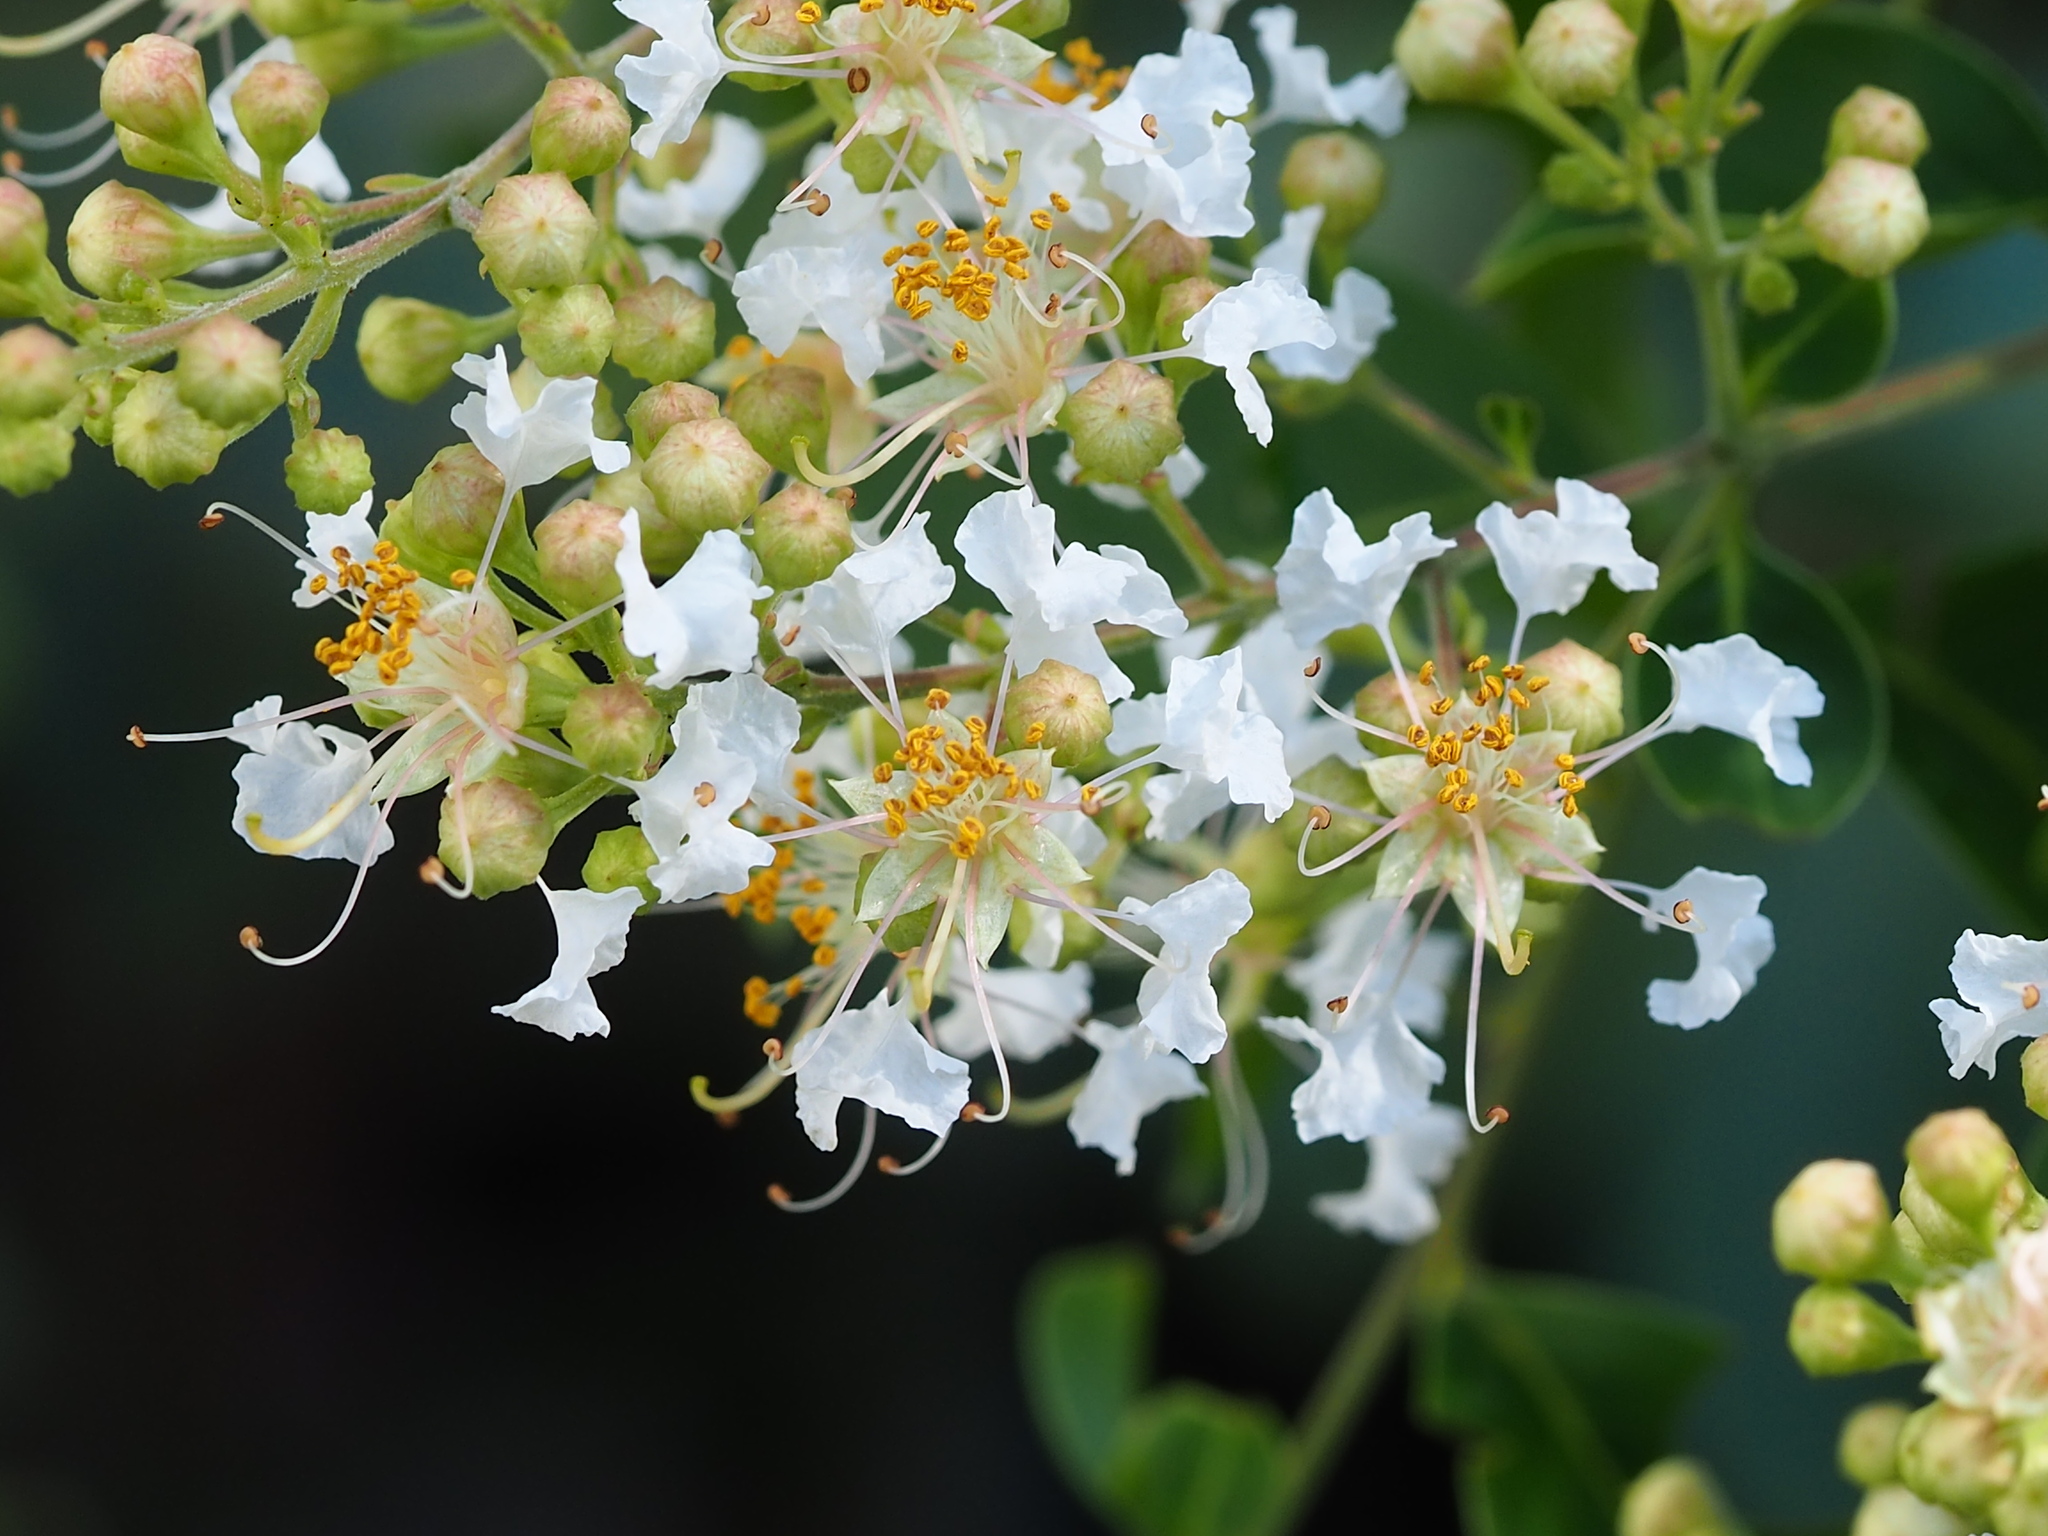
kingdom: Plantae
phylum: Tracheophyta
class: Magnoliopsida
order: Myrtales
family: Lythraceae
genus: Lagerstroemia
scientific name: Lagerstroemia subcostata
